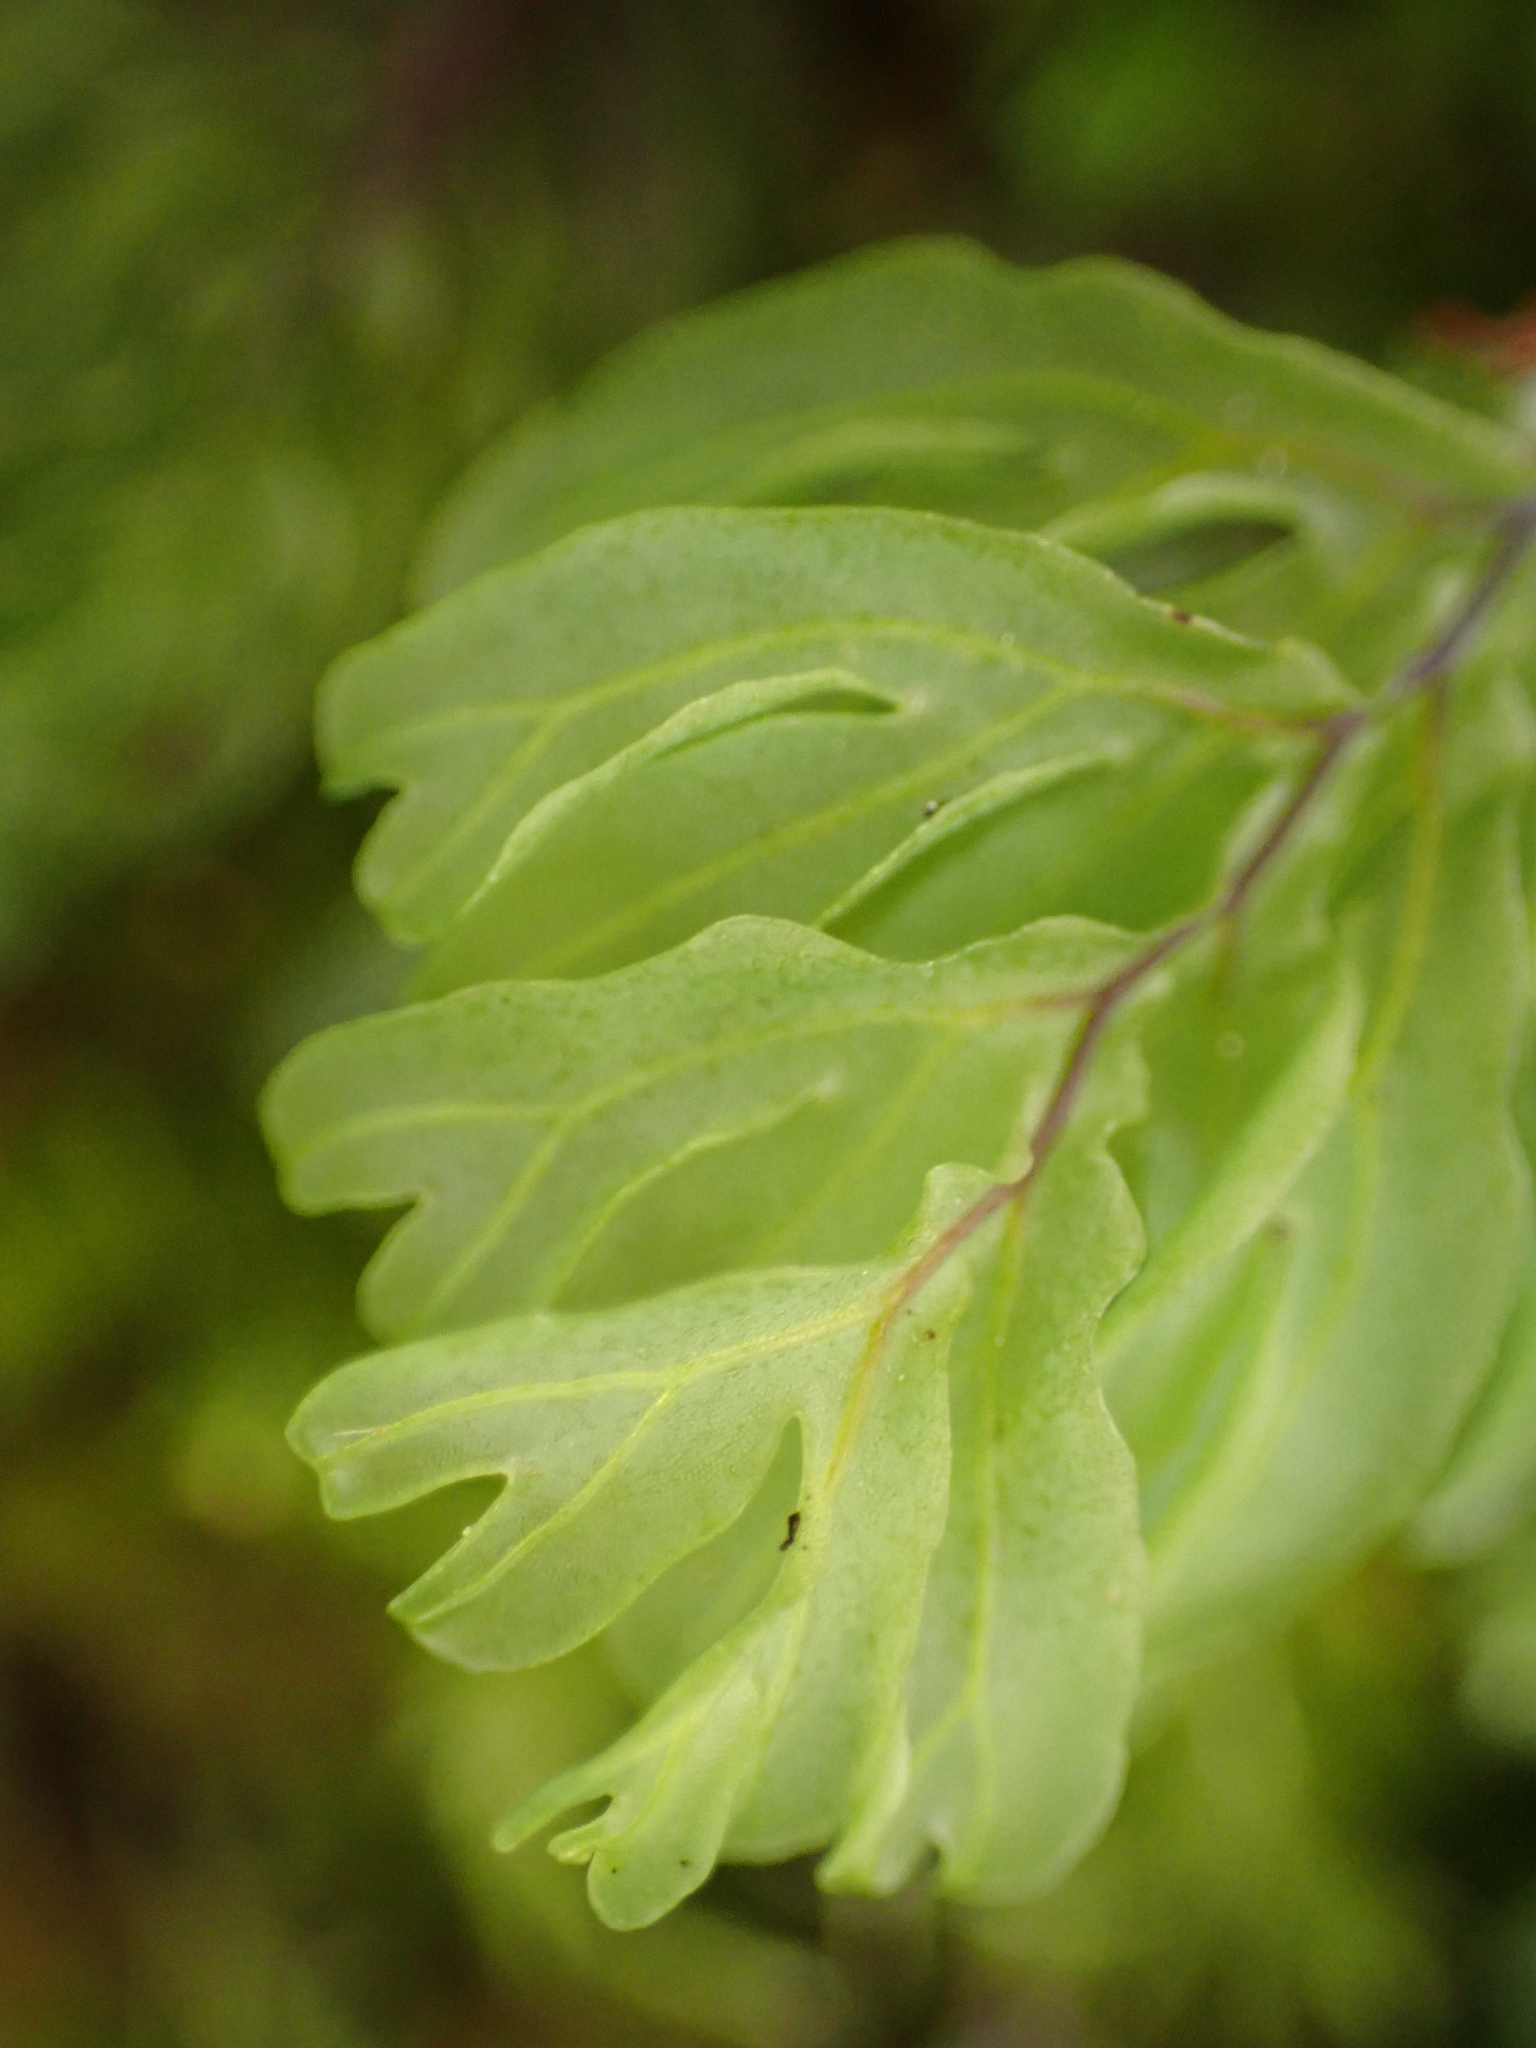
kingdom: Plantae
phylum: Tracheophyta
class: Polypodiopsida
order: Hymenophyllales
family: Hymenophyllaceae
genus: Hymenophyllum
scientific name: Hymenophyllum rarum
